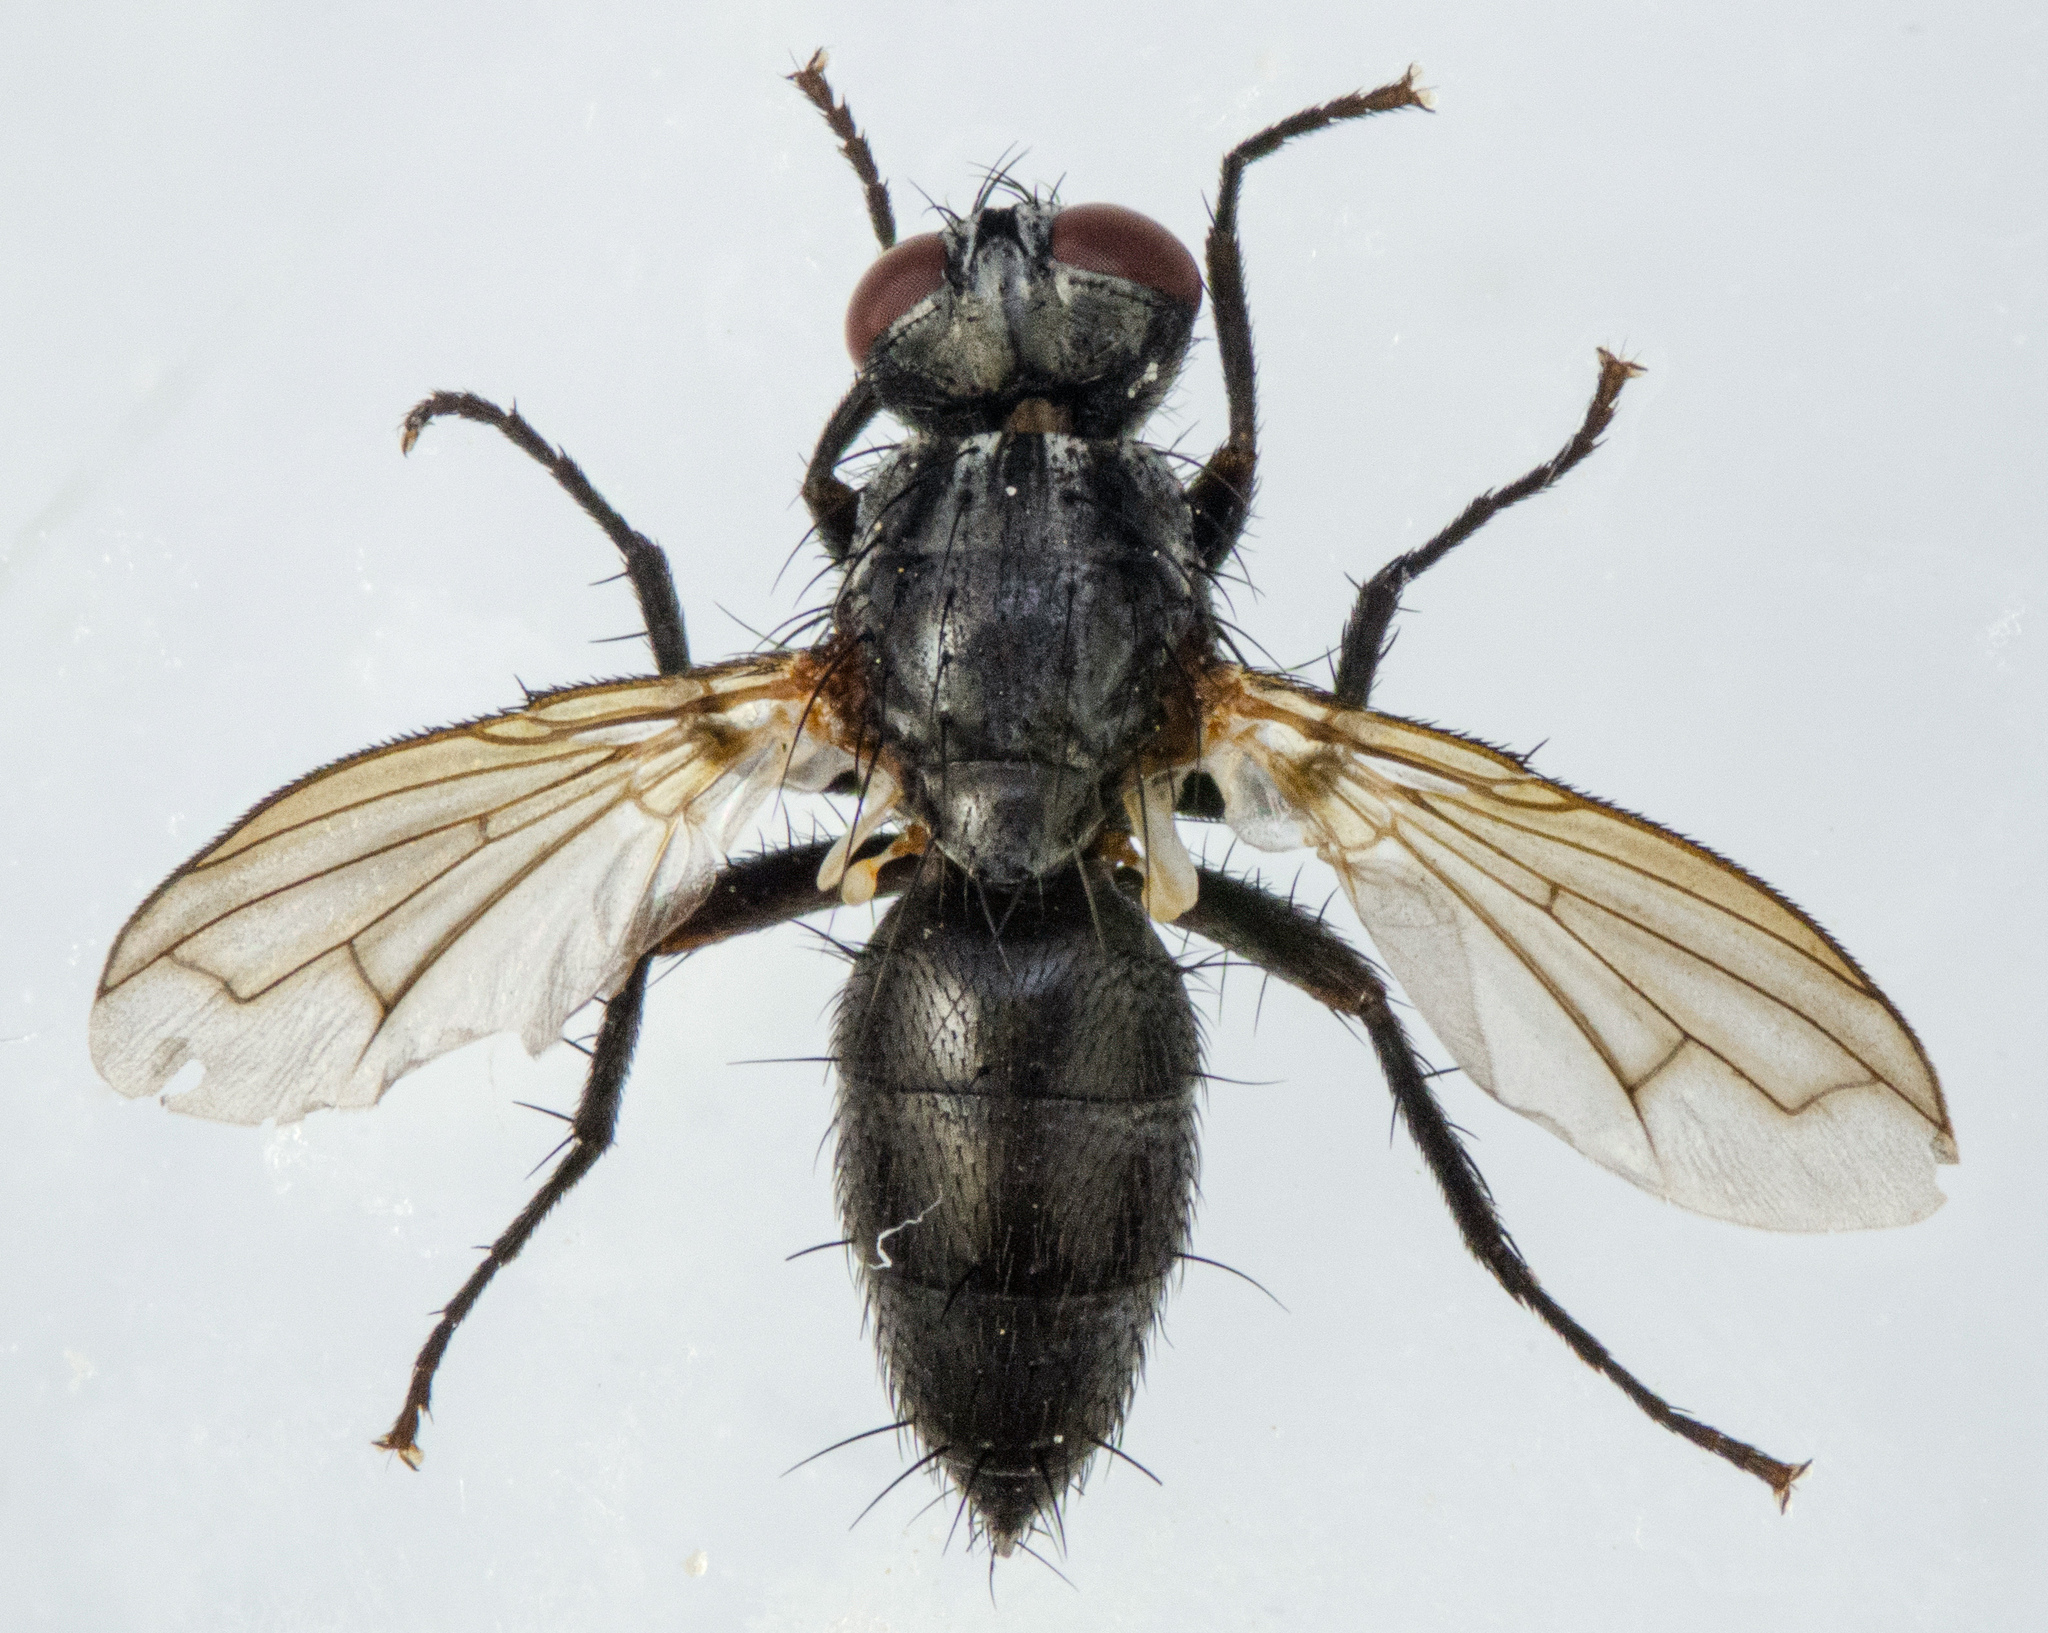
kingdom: Animalia
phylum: Arthropoda
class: Insecta
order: Diptera
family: Calliphoridae
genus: Stevenia
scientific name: Stevenia deceptoria
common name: Grizzled woodlouse-fly
